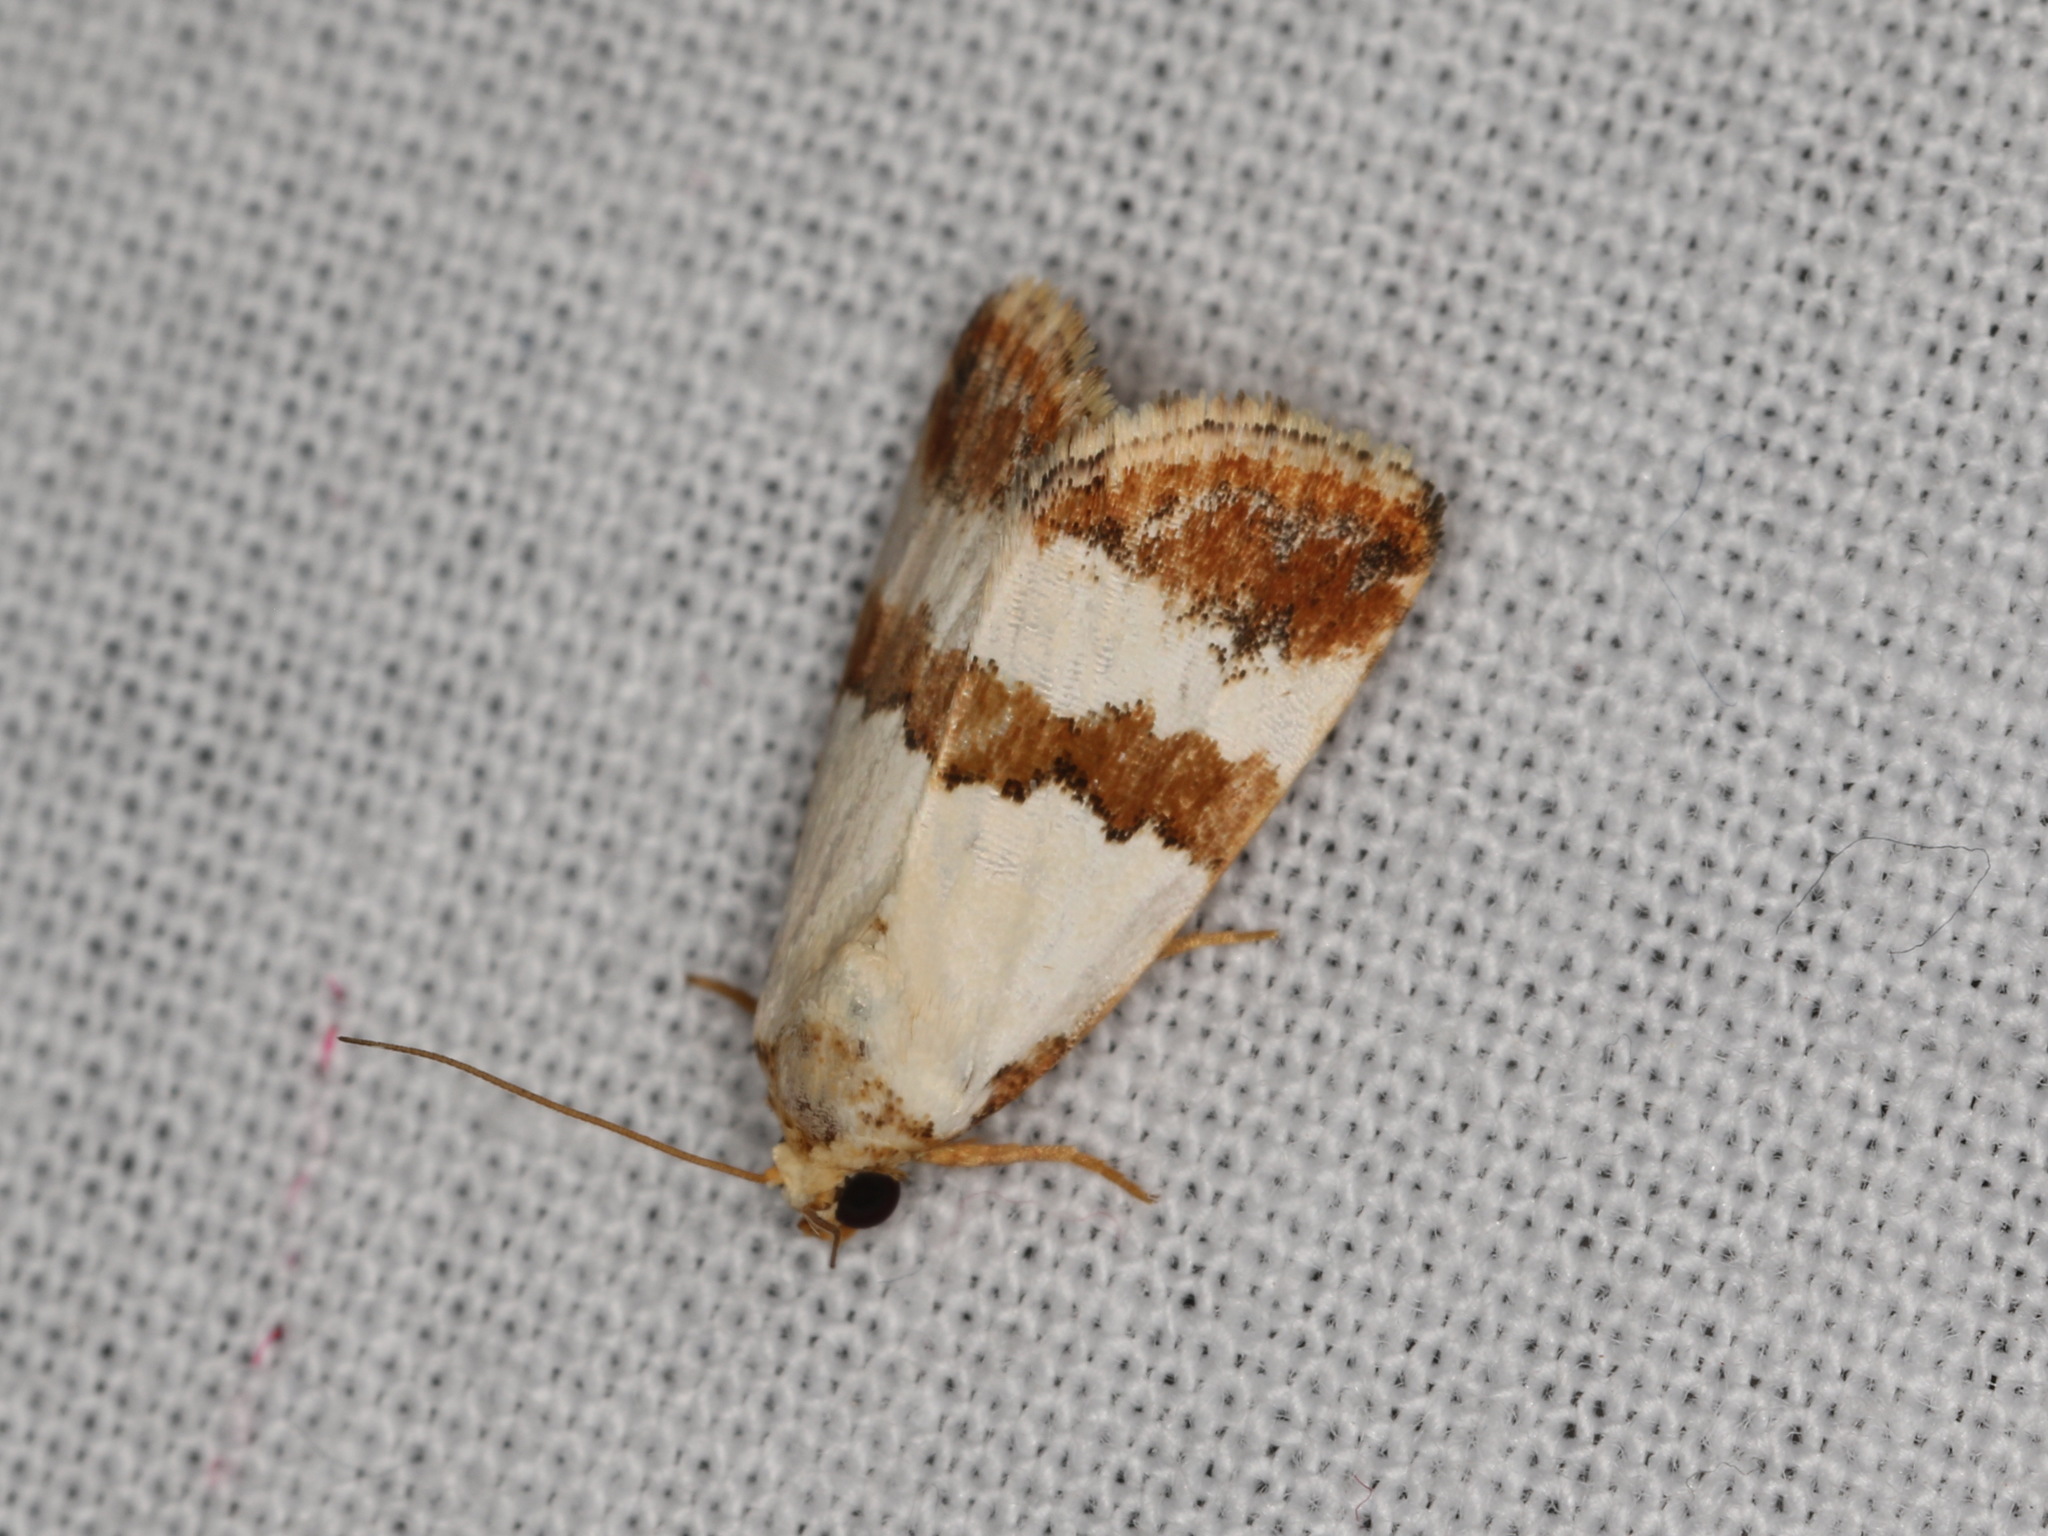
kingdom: Animalia
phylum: Arthropoda
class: Insecta
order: Lepidoptera
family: Noctuidae
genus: Maliattha
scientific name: Maliattha ritsemae
